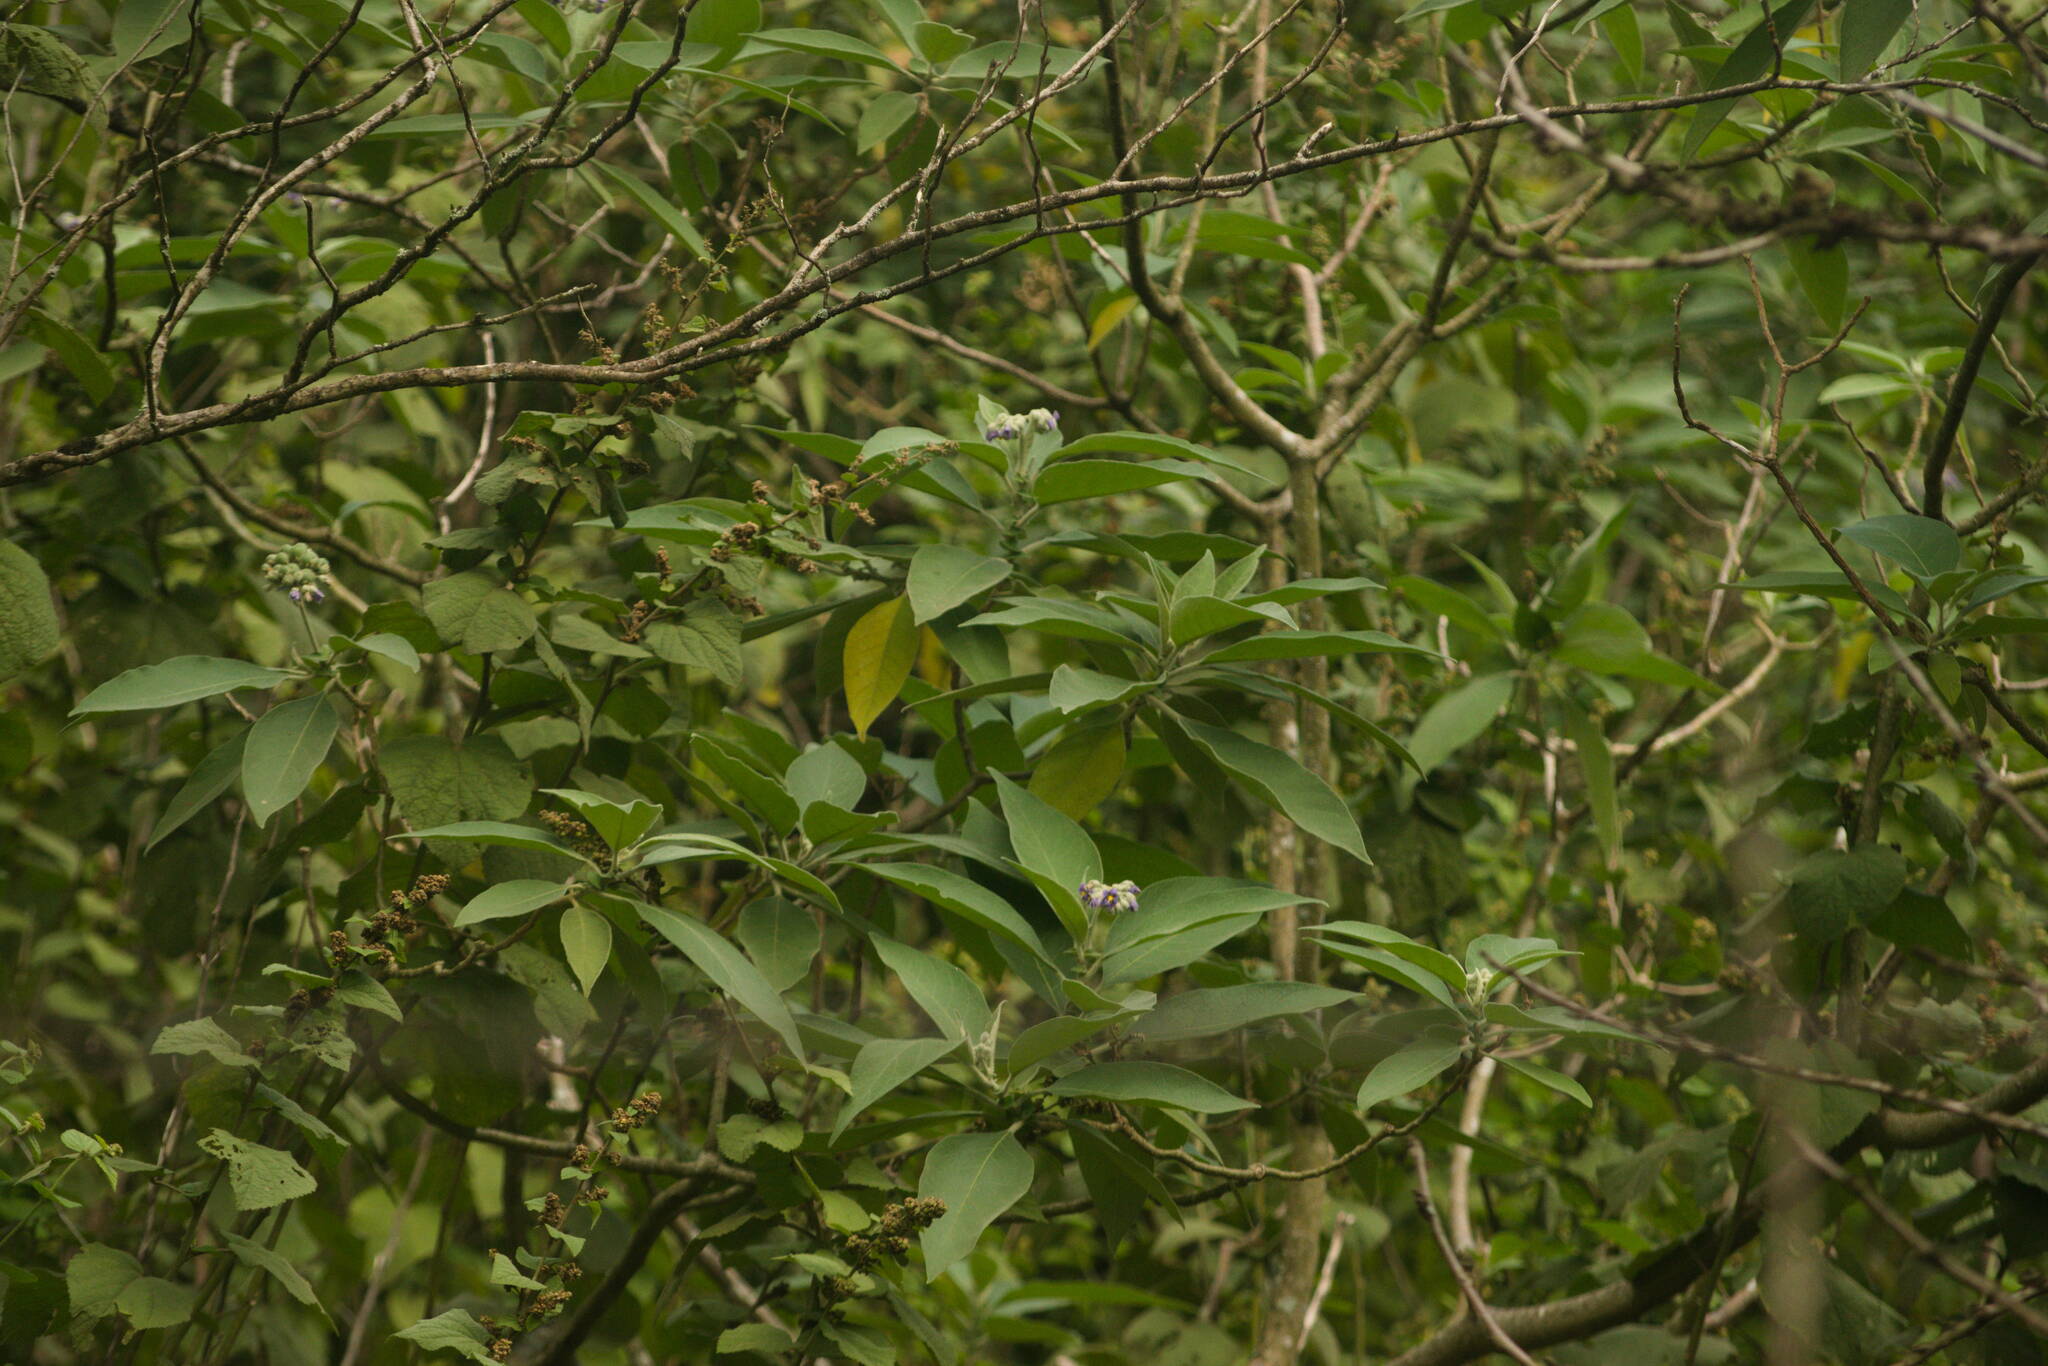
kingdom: Plantae
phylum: Tracheophyta
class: Magnoliopsida
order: Solanales
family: Solanaceae
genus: Solanum
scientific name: Solanum mauritianum
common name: Earleaf nightshade
